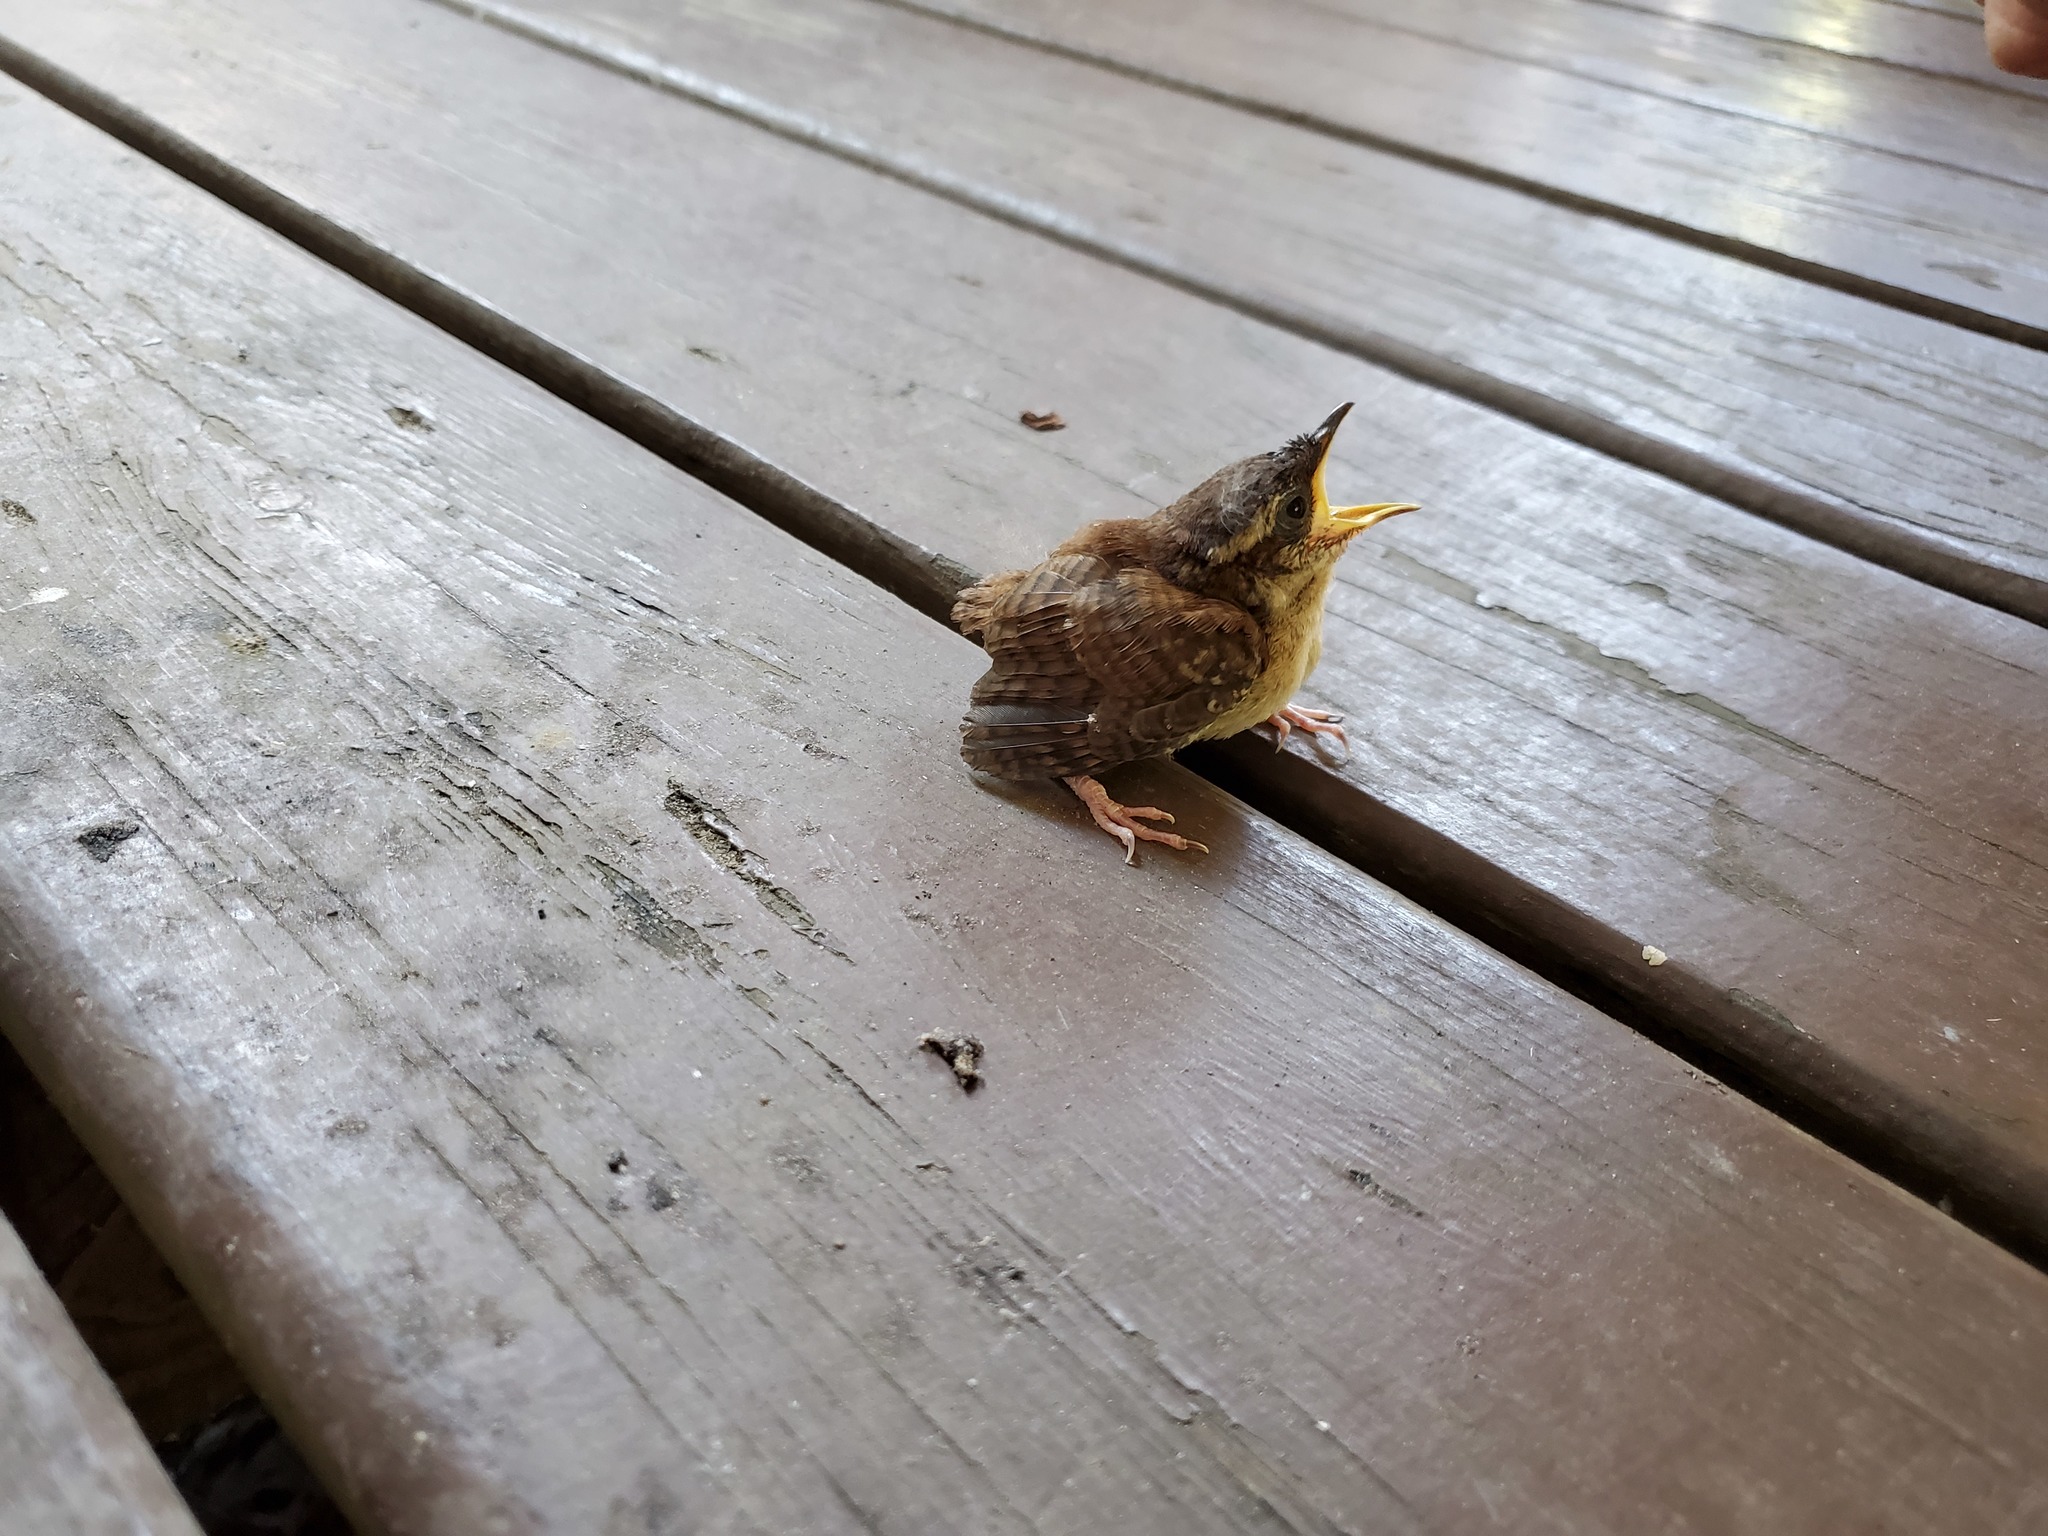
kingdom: Animalia
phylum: Chordata
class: Aves
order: Passeriformes
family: Troglodytidae
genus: Thryothorus
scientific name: Thryothorus ludovicianus
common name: Carolina wren
